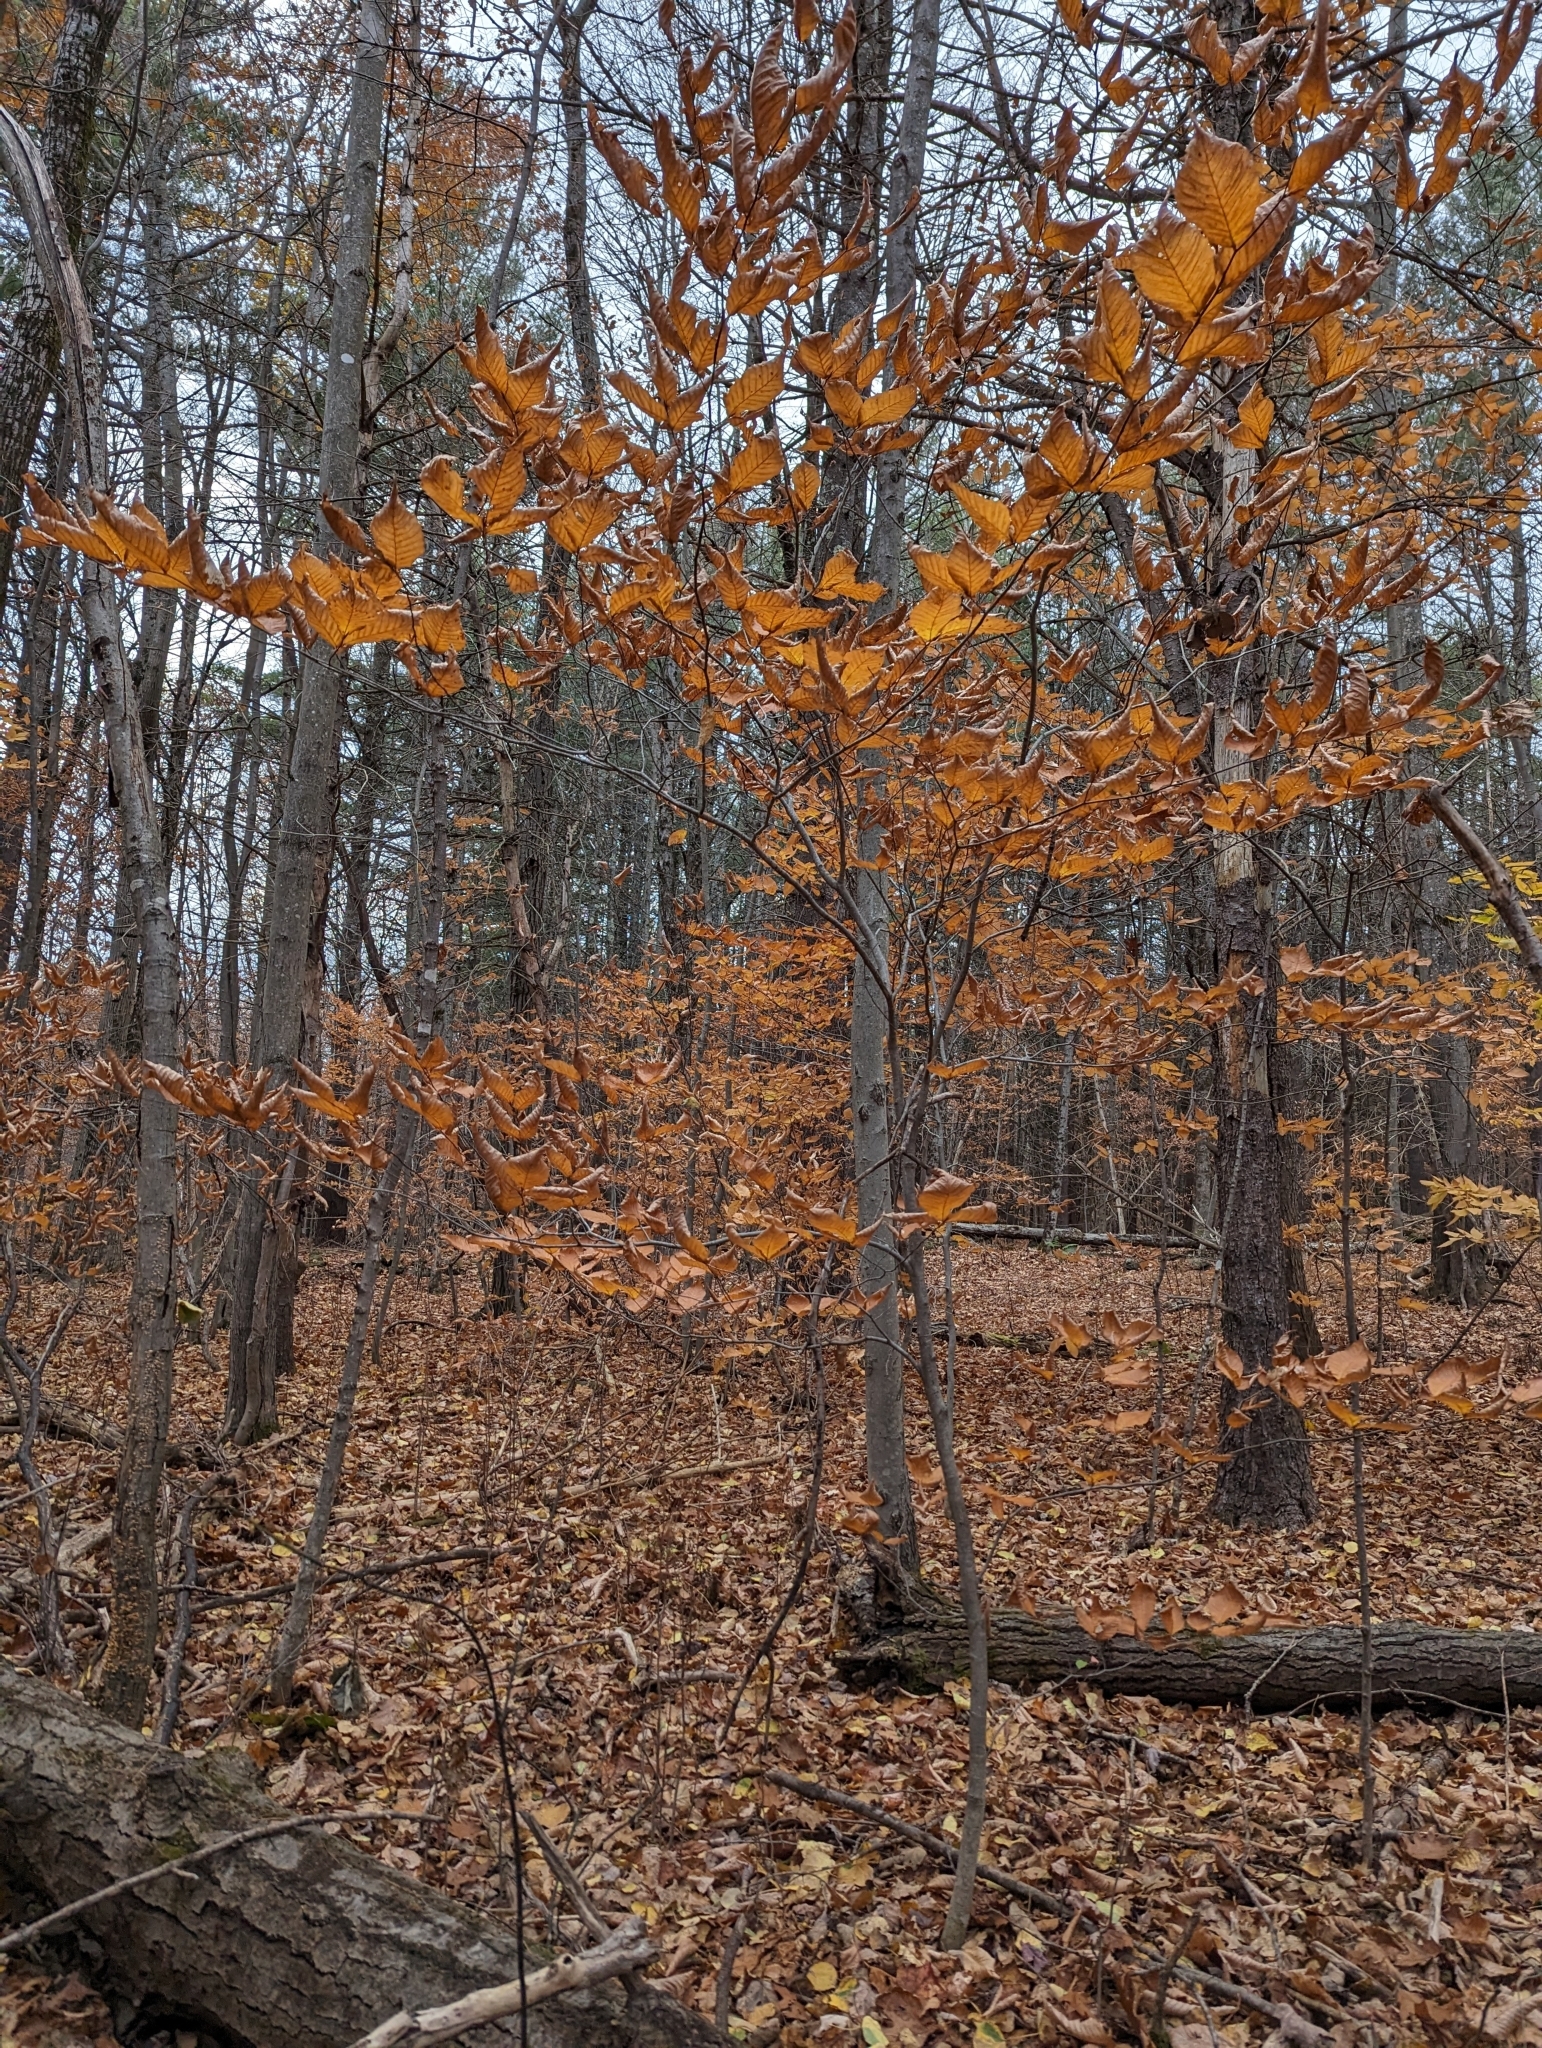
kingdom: Plantae
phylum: Tracheophyta
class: Magnoliopsida
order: Fagales
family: Fagaceae
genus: Fagus
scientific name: Fagus grandifolia
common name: American beech
